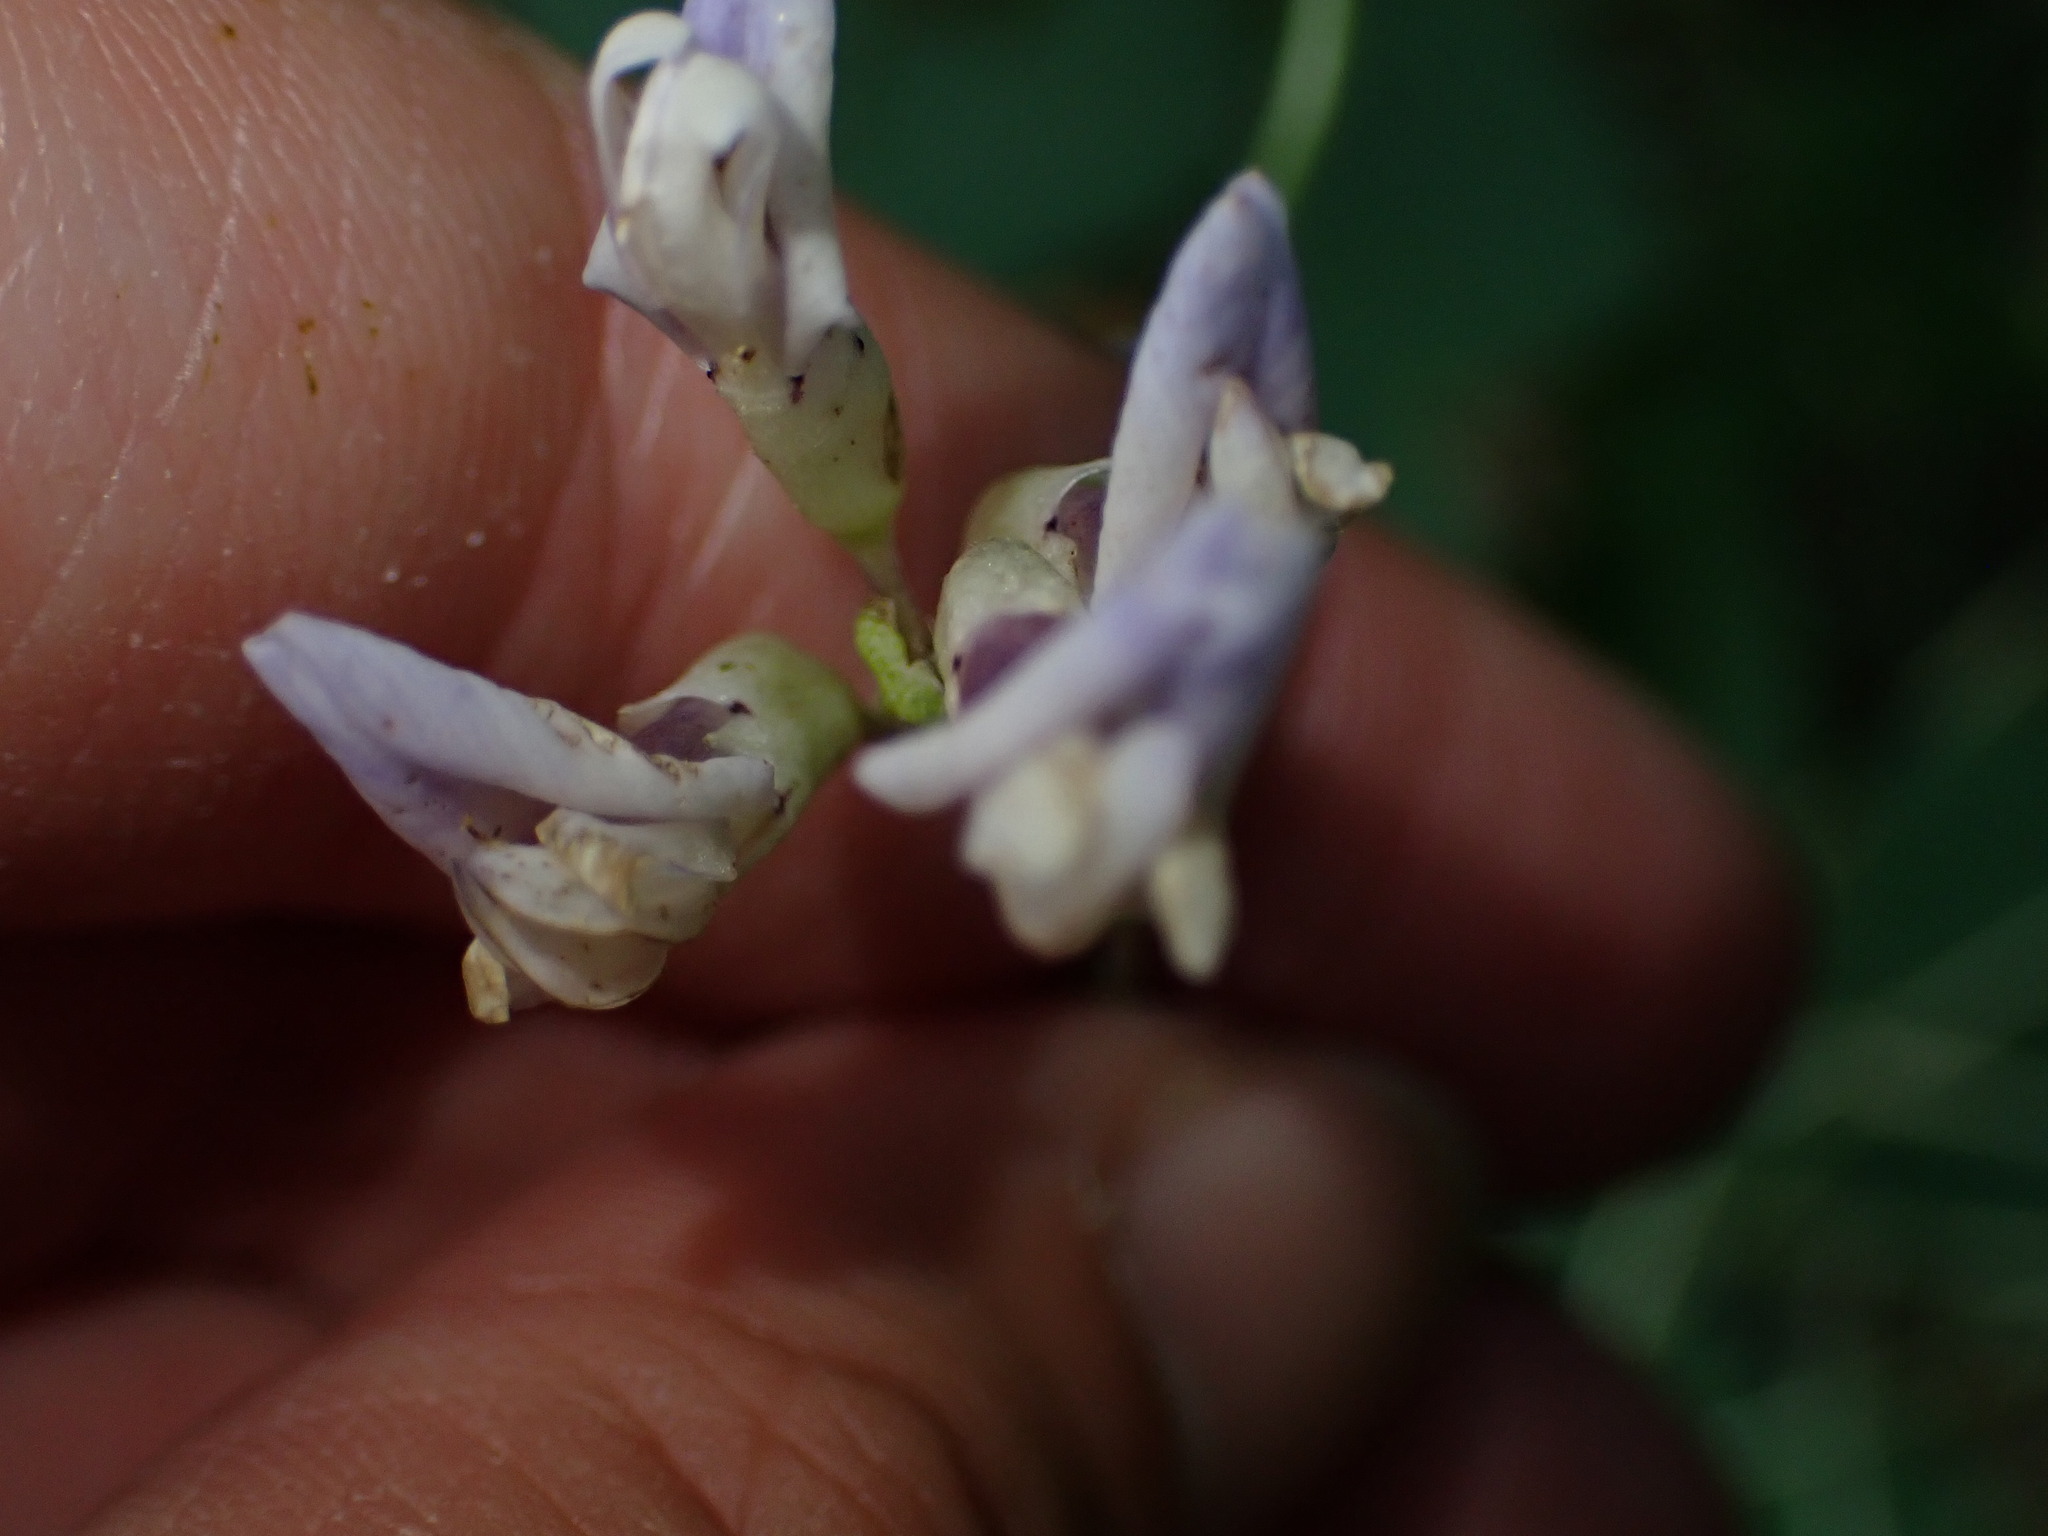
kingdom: Plantae
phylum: Tracheophyta
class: Magnoliopsida
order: Fabales
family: Fabaceae
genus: Amphicarpaea
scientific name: Amphicarpaea bracteata
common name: American hog peanut
